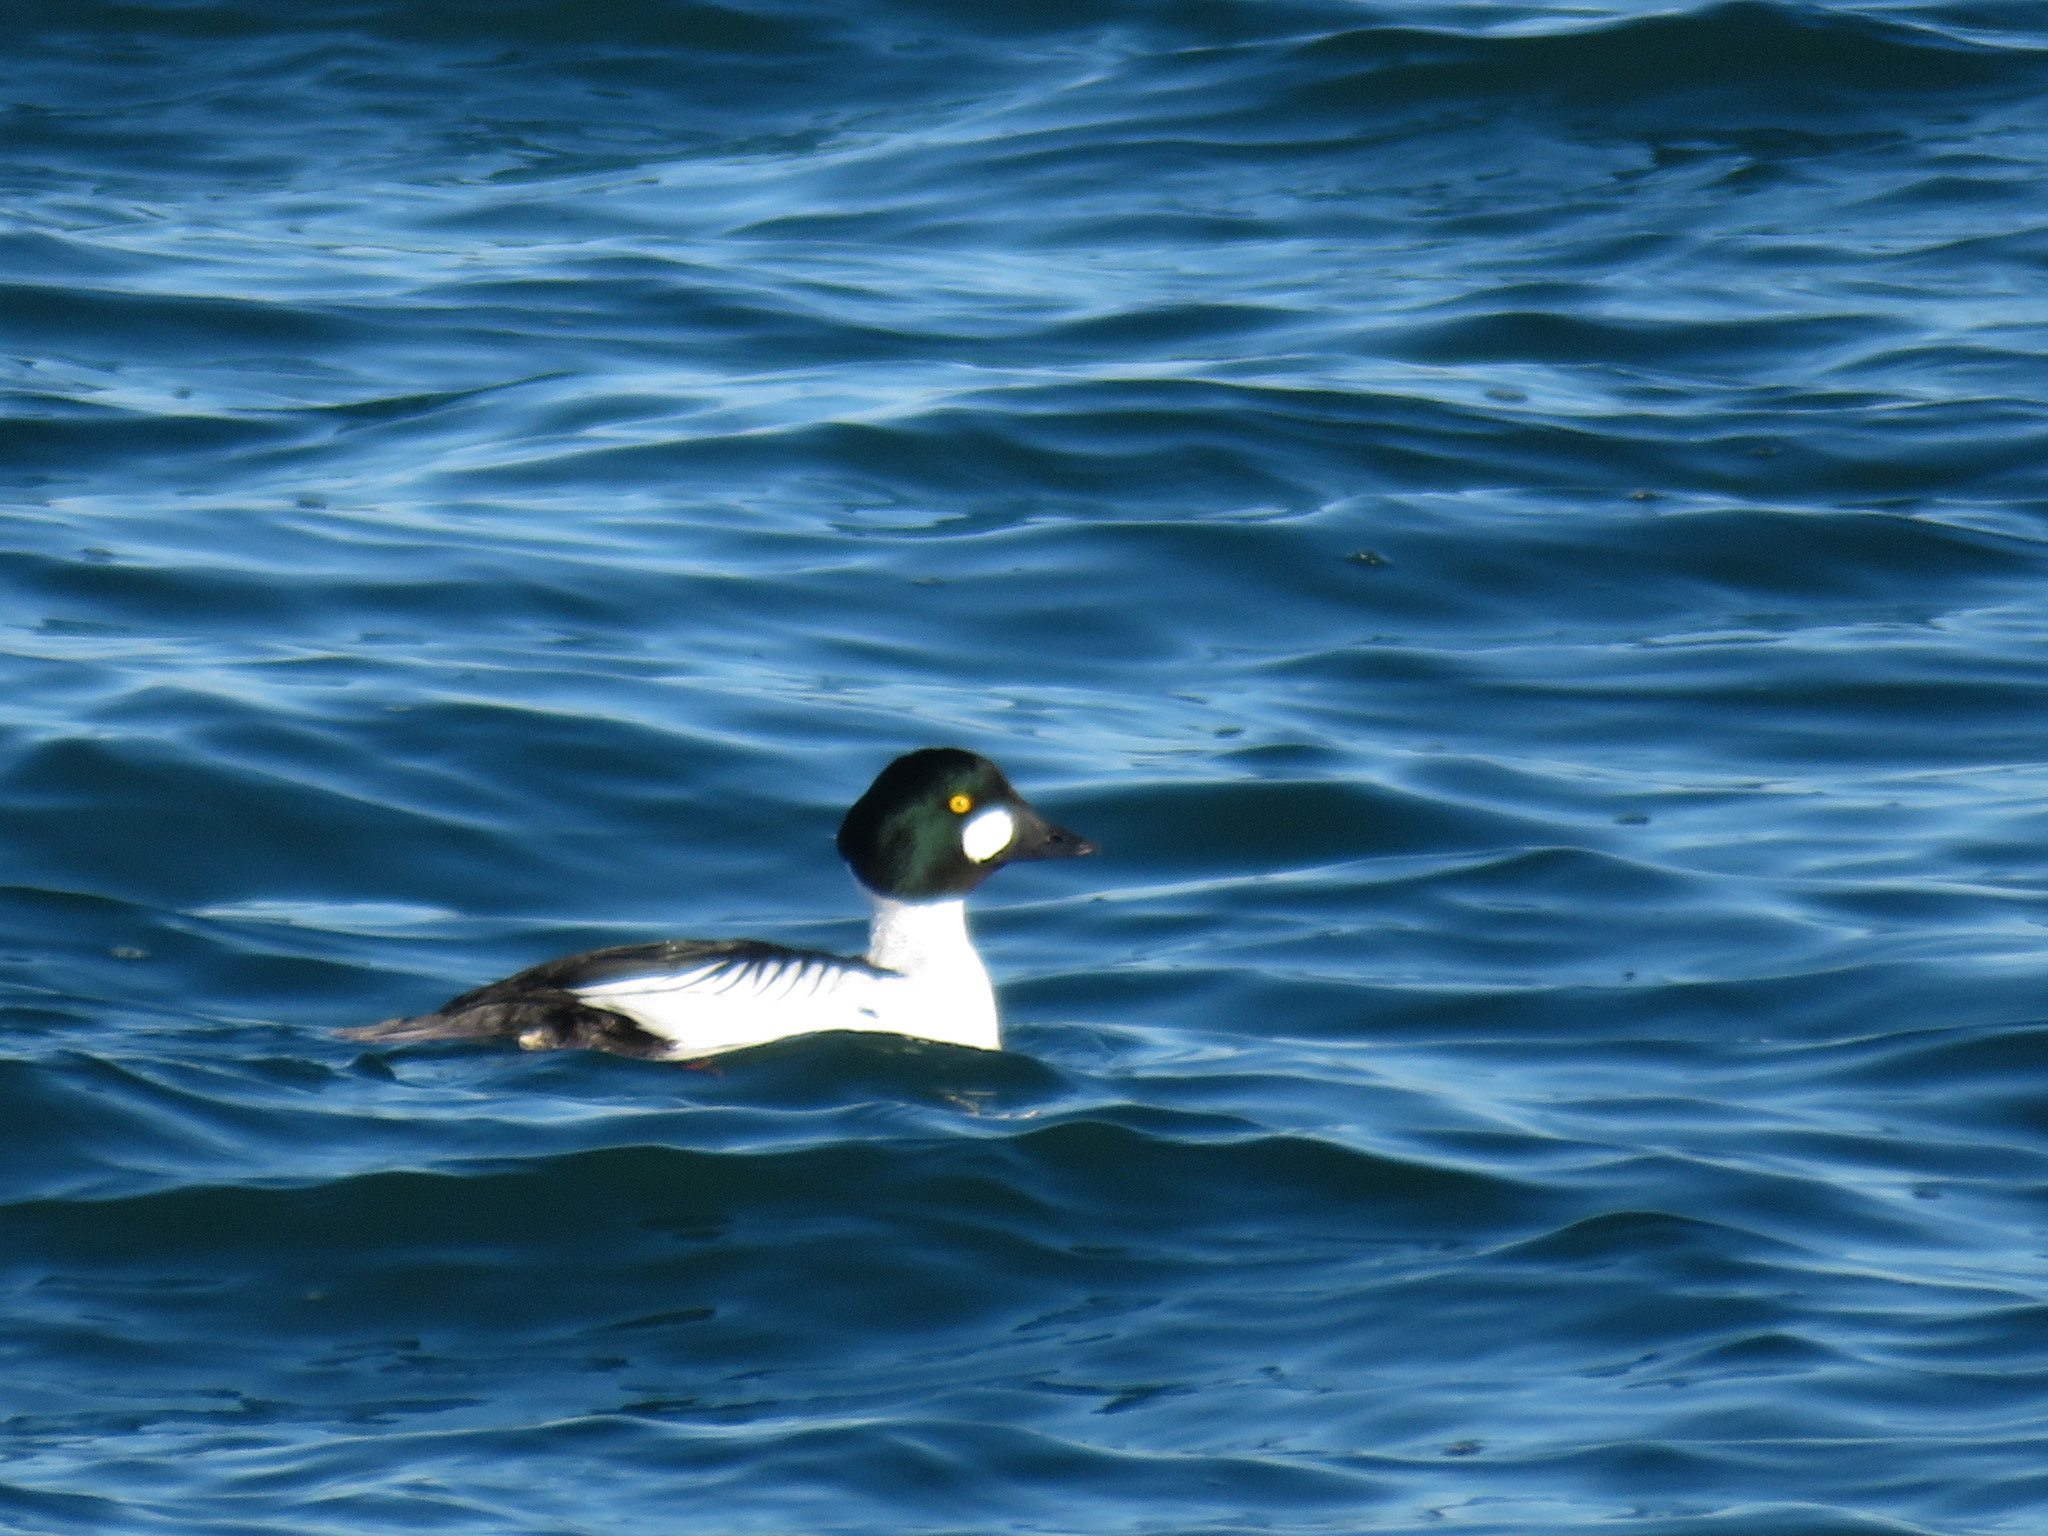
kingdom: Animalia
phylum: Chordata
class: Aves
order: Anseriformes
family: Anatidae
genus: Bucephala
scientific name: Bucephala clangula
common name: Common goldeneye
